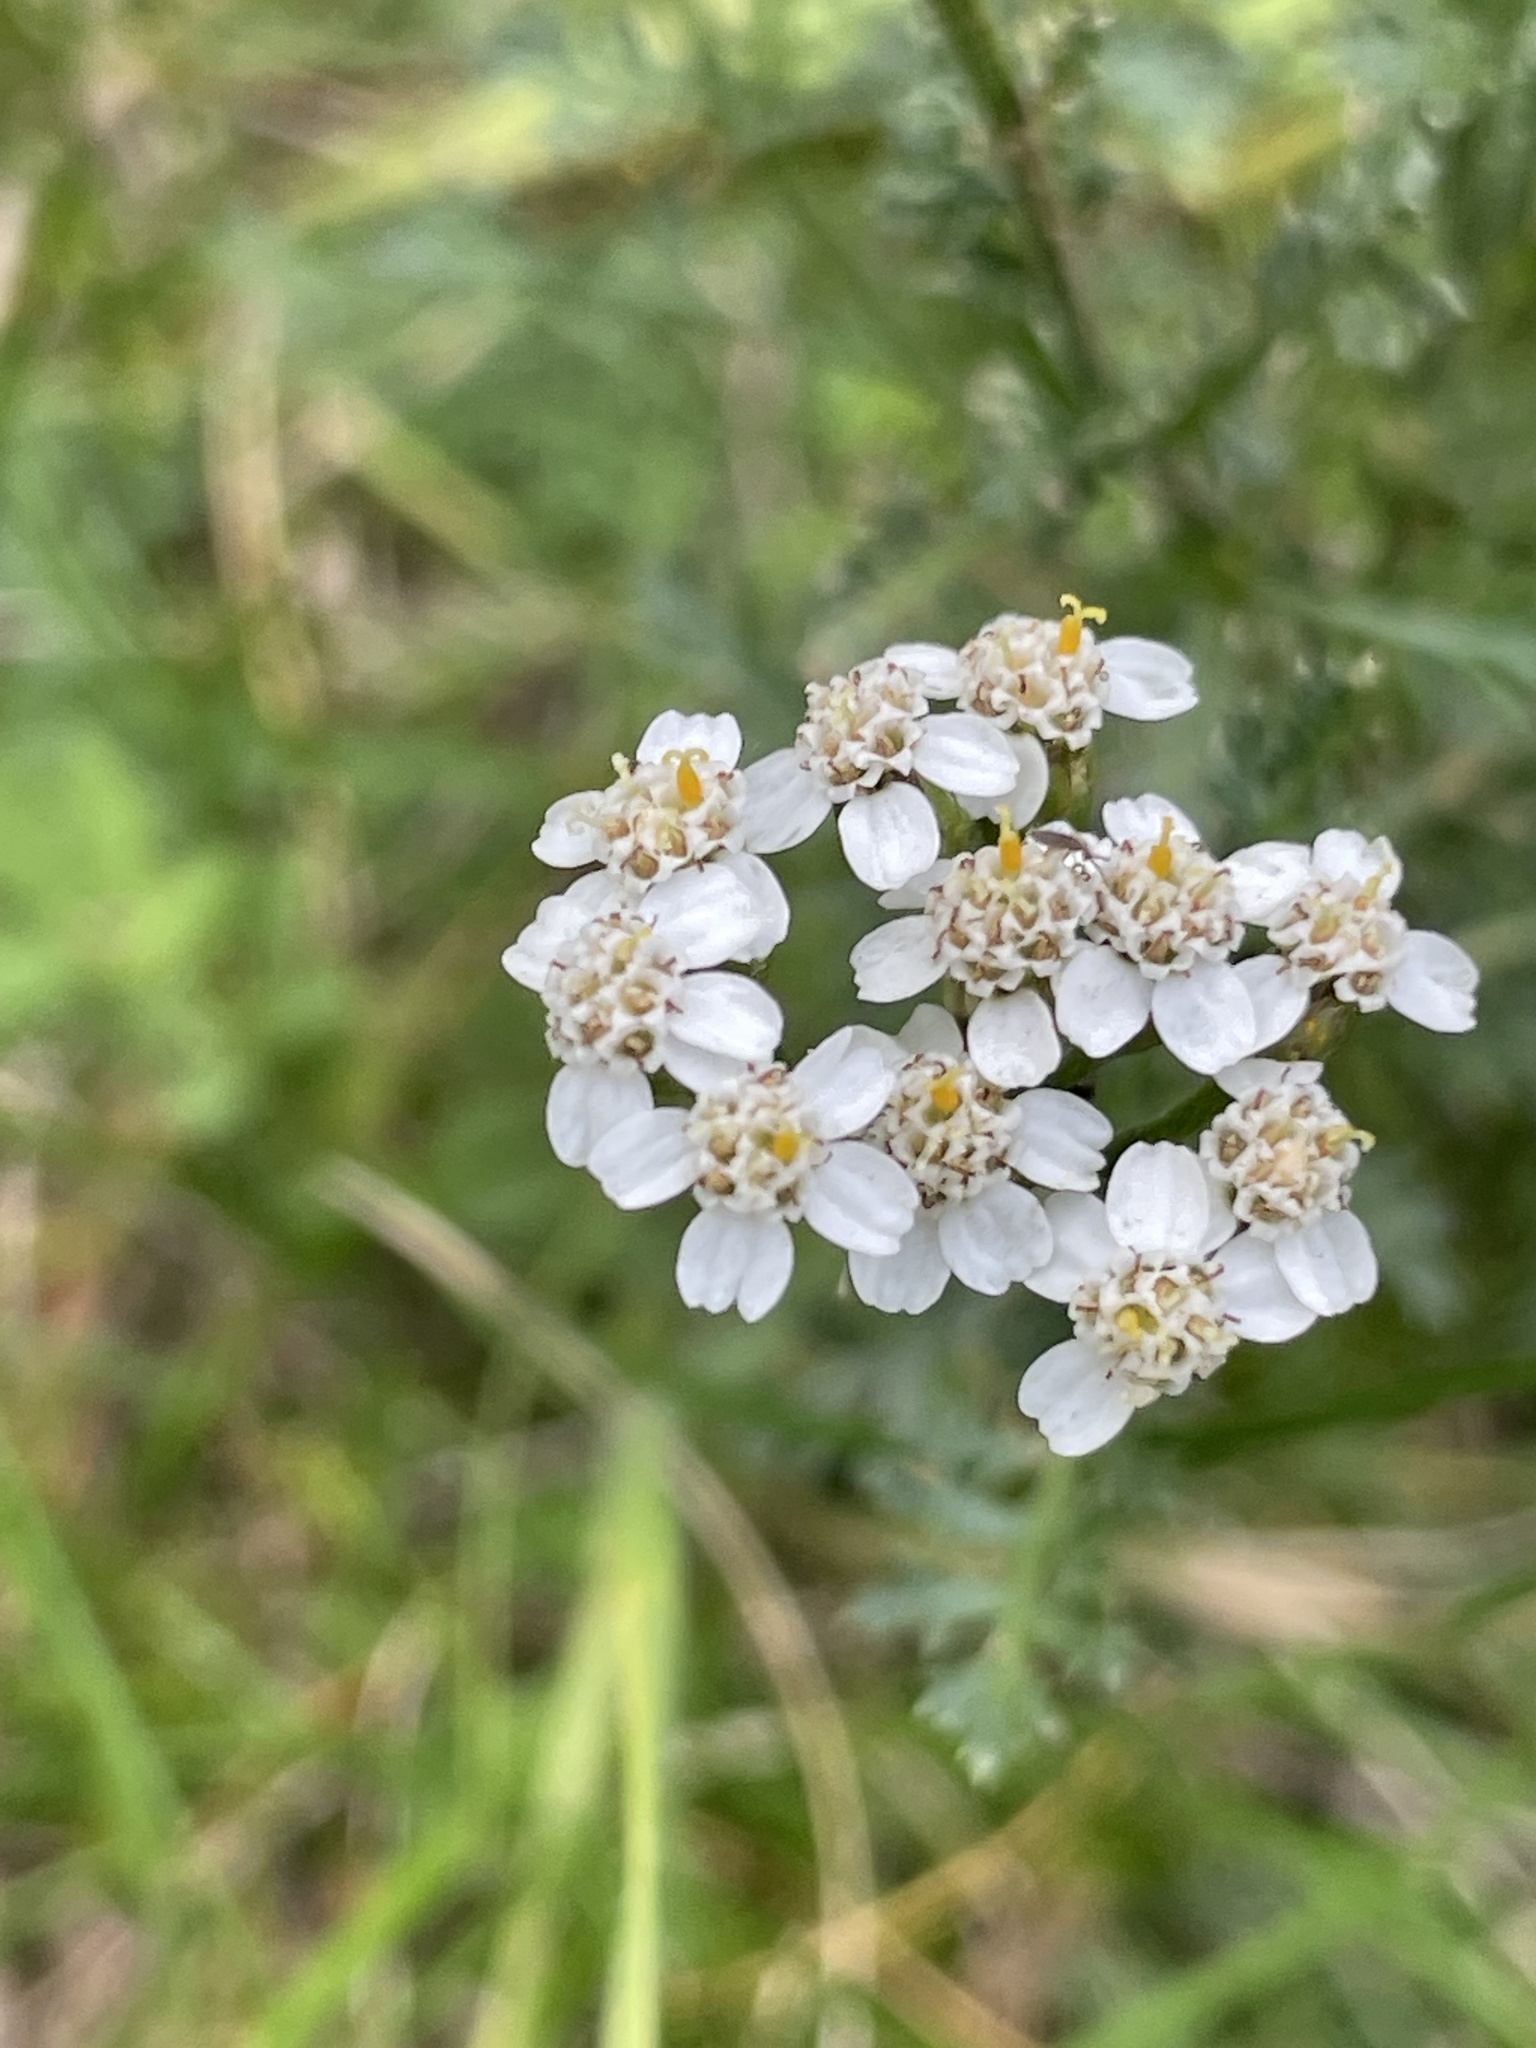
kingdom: Plantae
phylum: Tracheophyta
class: Magnoliopsida
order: Asterales
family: Asteraceae
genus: Achillea
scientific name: Achillea
